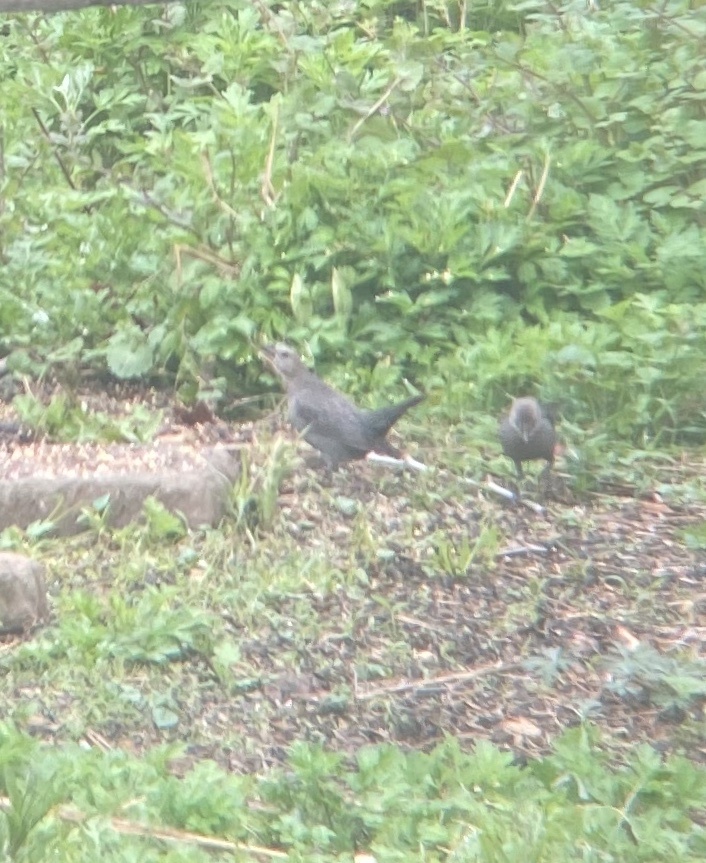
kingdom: Animalia
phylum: Chordata
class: Aves
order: Passeriformes
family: Icteridae
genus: Molothrus
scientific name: Molothrus ater
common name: Brown-headed cowbird
